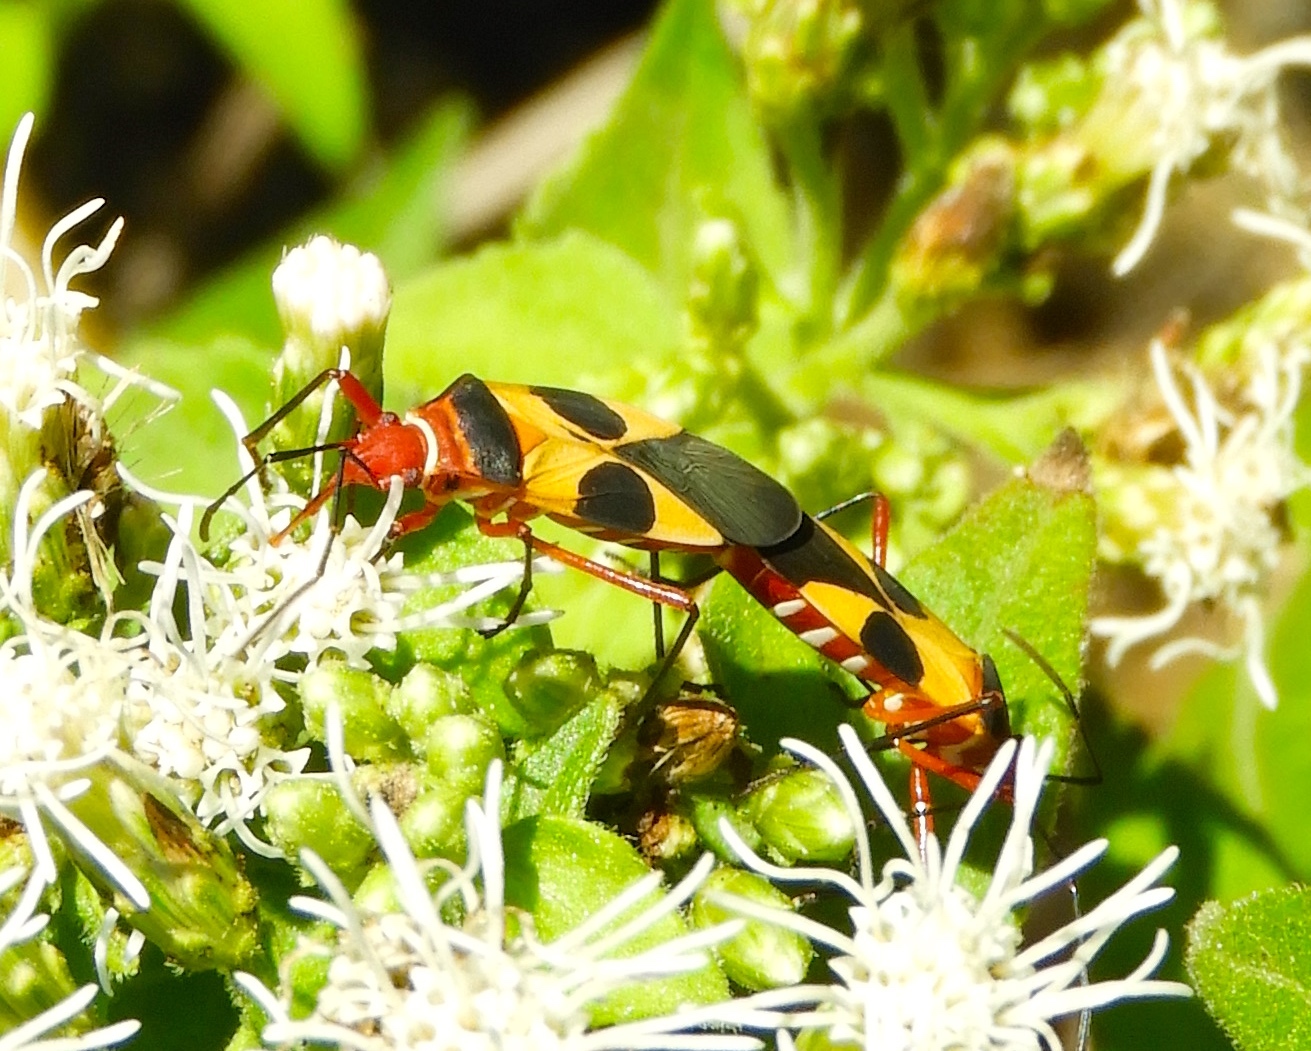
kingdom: Animalia
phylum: Arthropoda
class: Insecta
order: Hemiptera
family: Pyrrhocoridae
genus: Dysdercus
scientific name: Dysdercus
